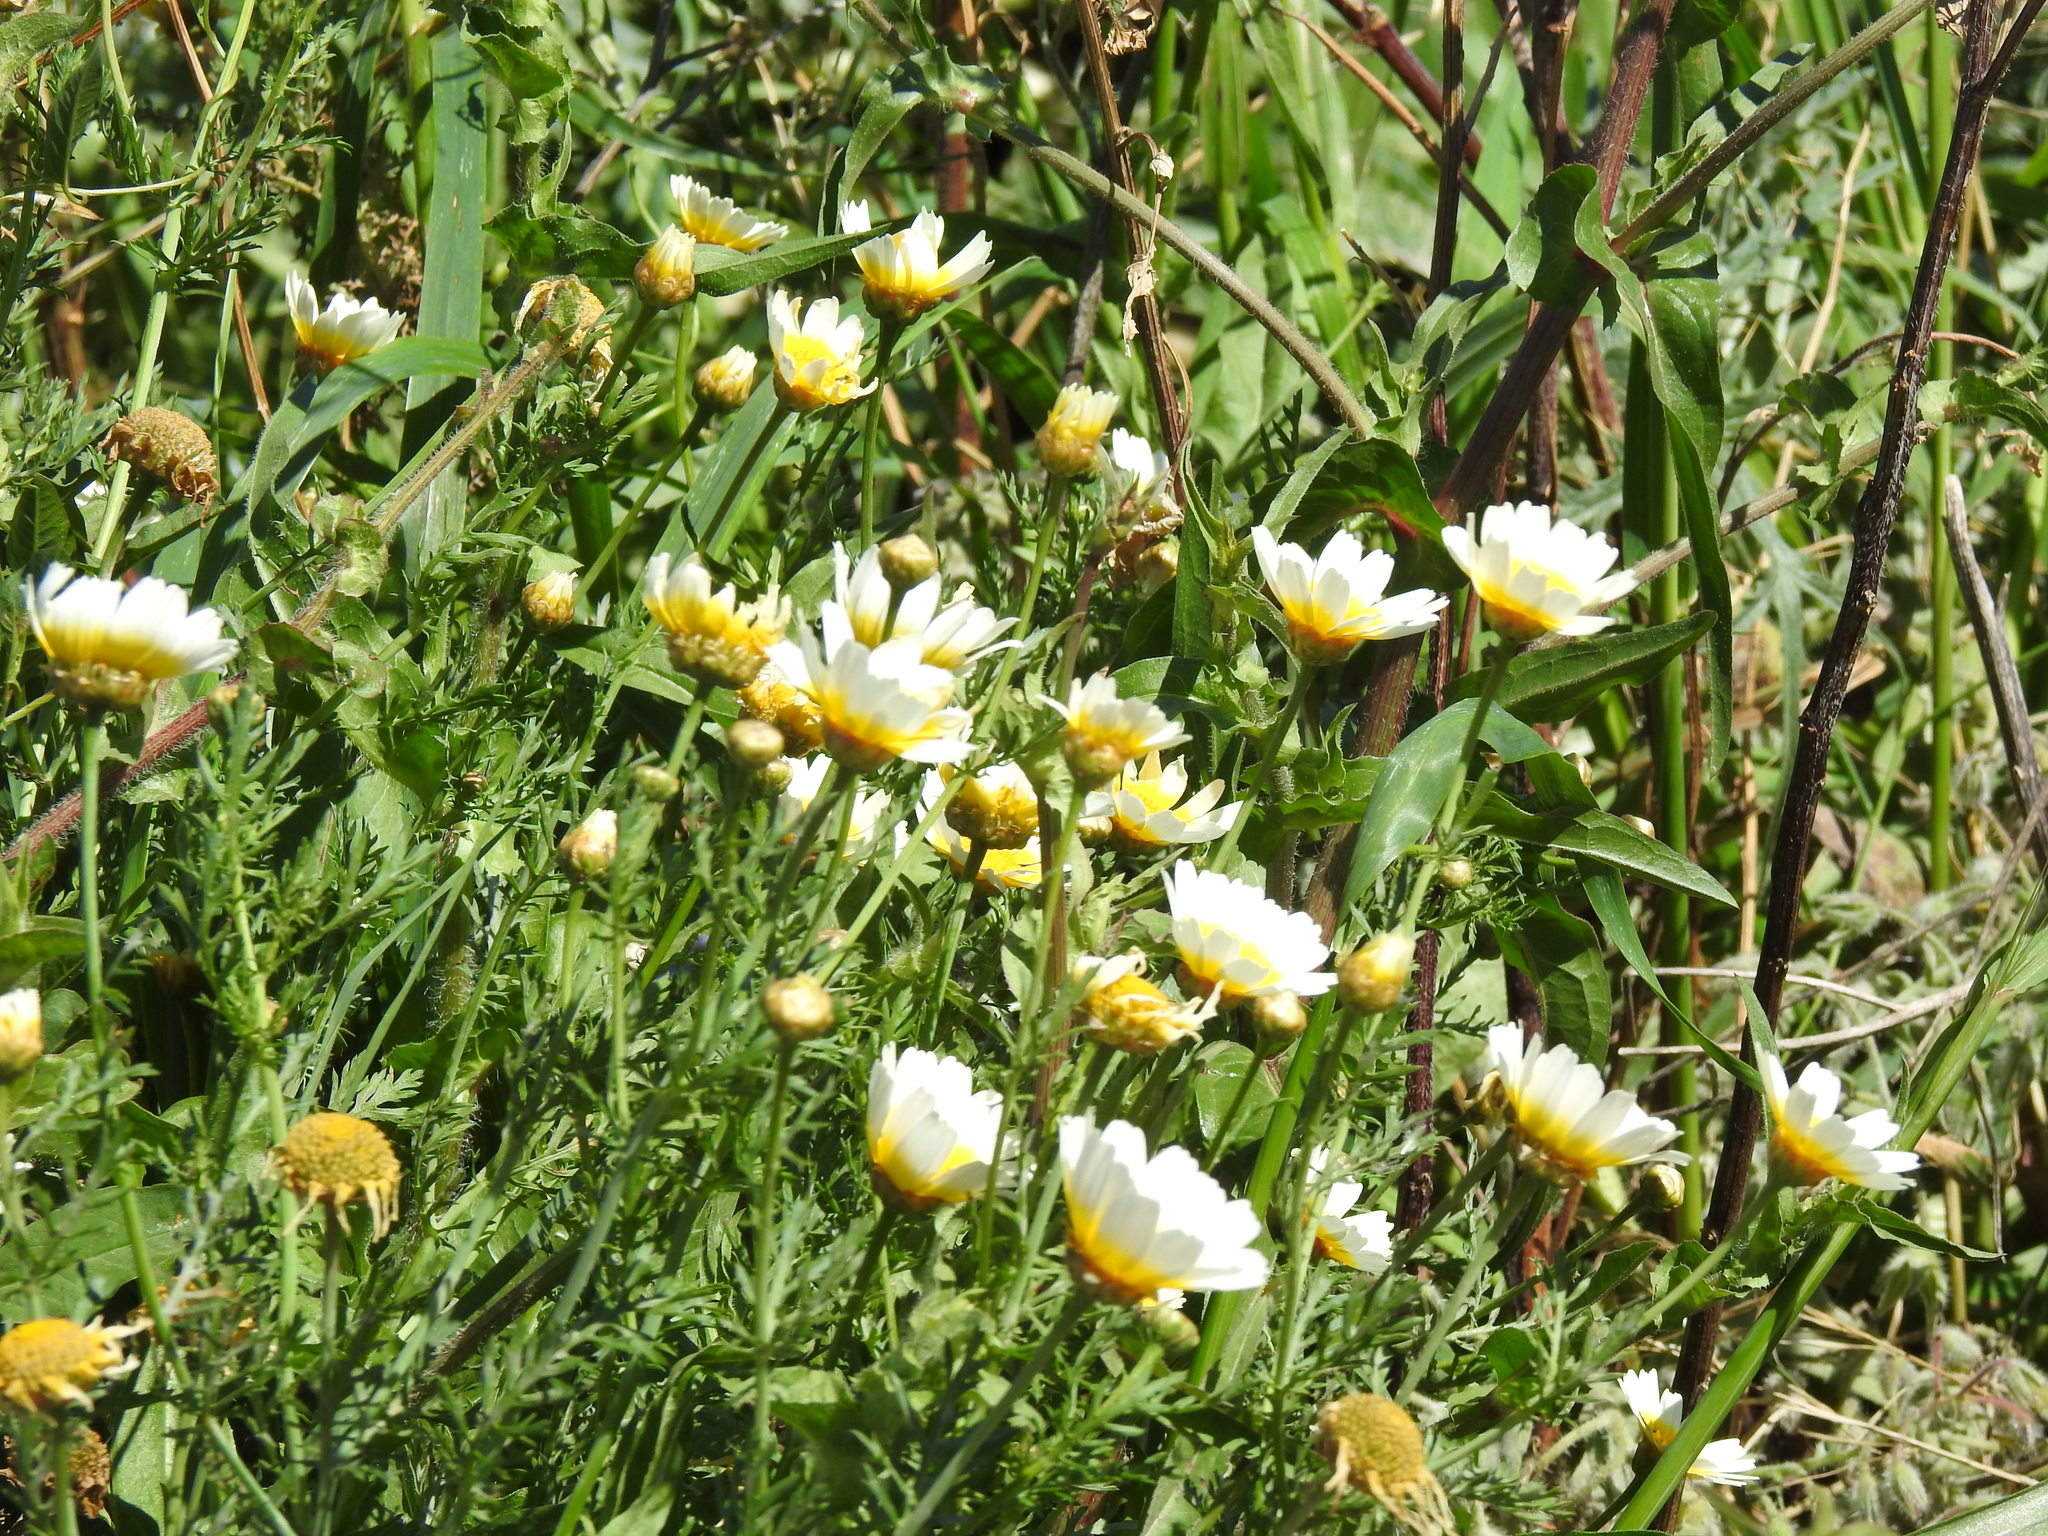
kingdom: Plantae
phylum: Tracheophyta
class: Magnoliopsida
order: Asterales
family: Asteraceae
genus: Glebionis
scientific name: Glebionis coronaria
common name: Crowndaisy
